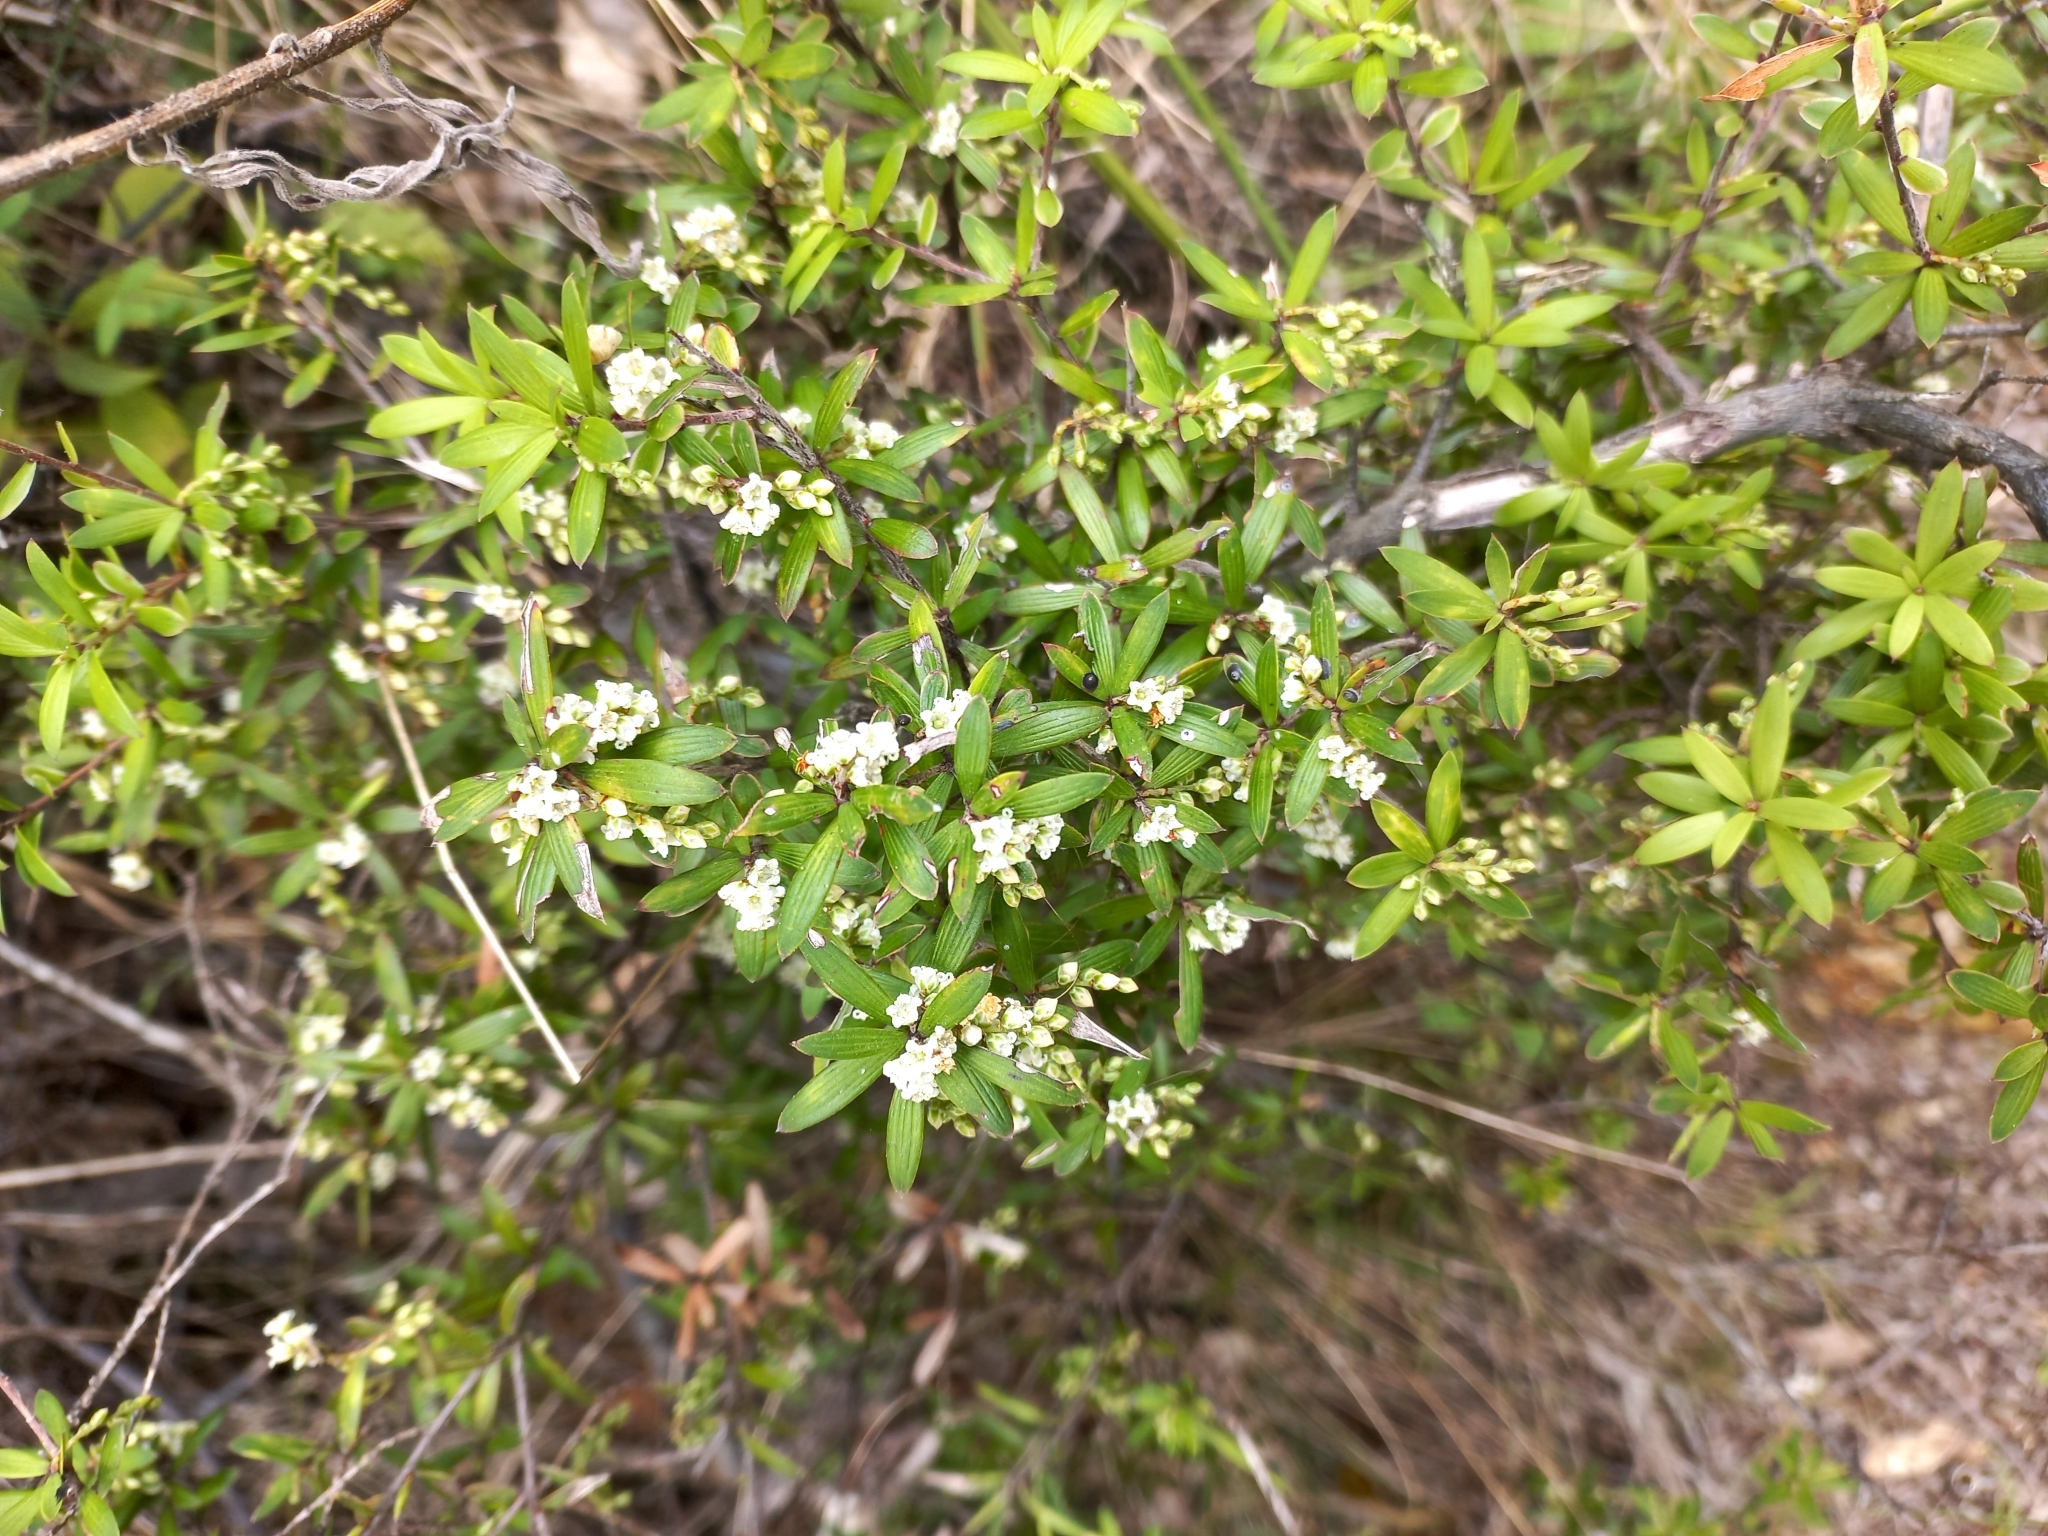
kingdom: Plantae
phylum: Tracheophyta
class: Magnoliopsida
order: Ericales
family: Ericaceae
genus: Leucopogon
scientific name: Leucopogon fasciculatus
